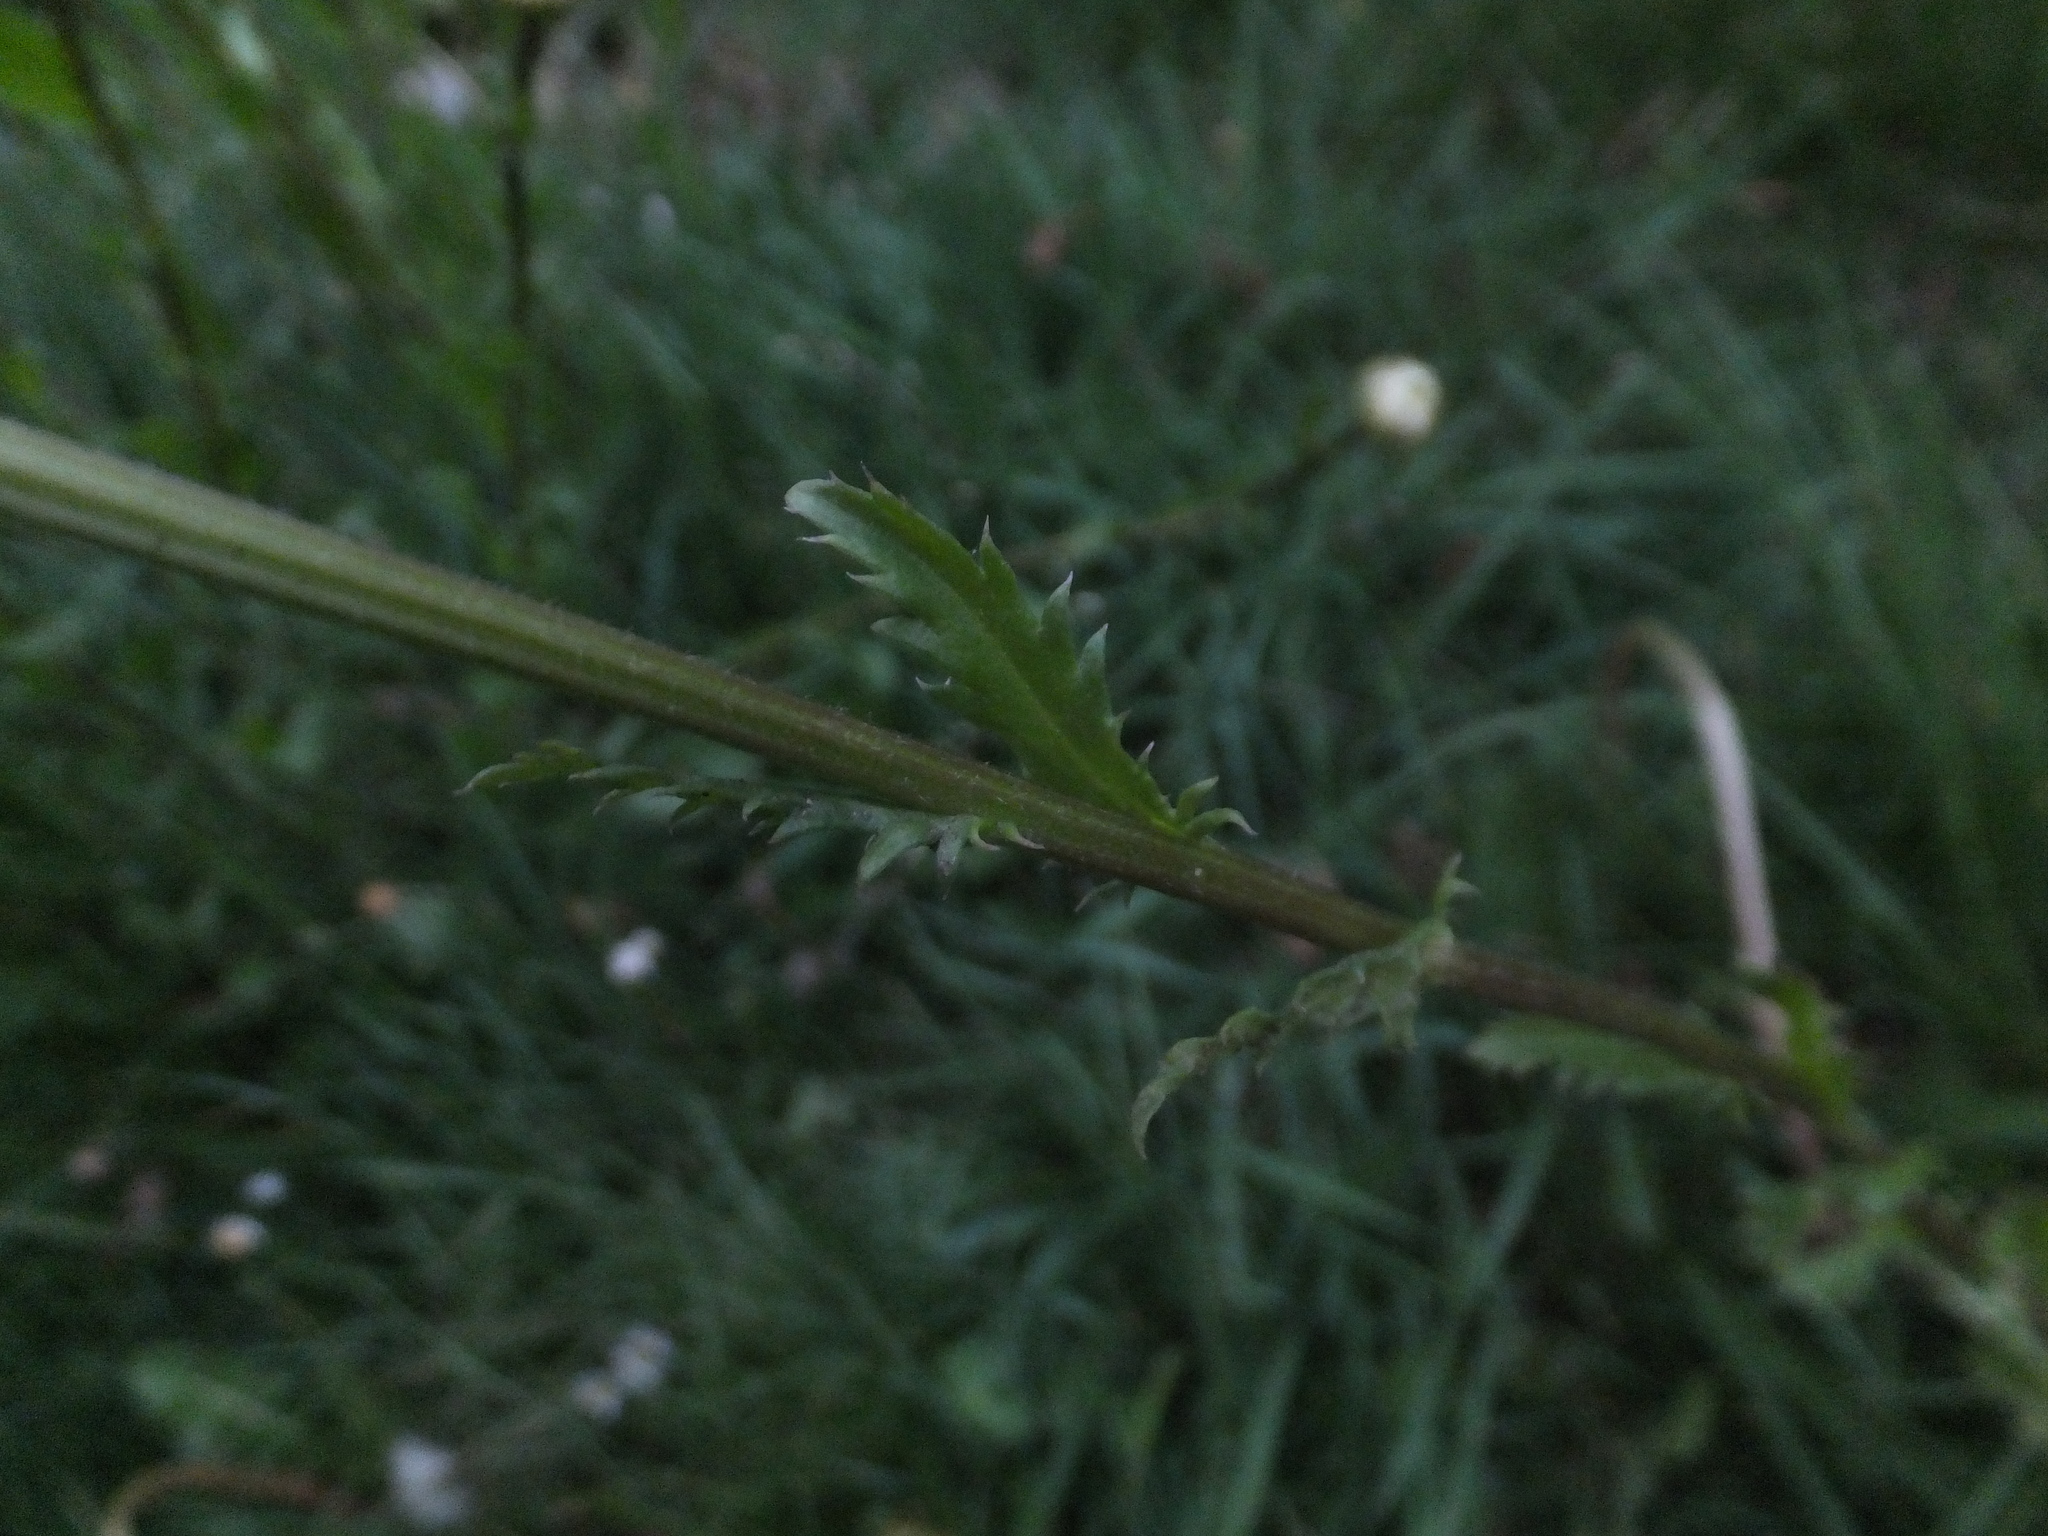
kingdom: Plantae
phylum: Tracheophyta
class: Magnoliopsida
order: Asterales
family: Asteraceae
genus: Leucanthemum
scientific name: Leucanthemum vulgare
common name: Oxeye daisy
